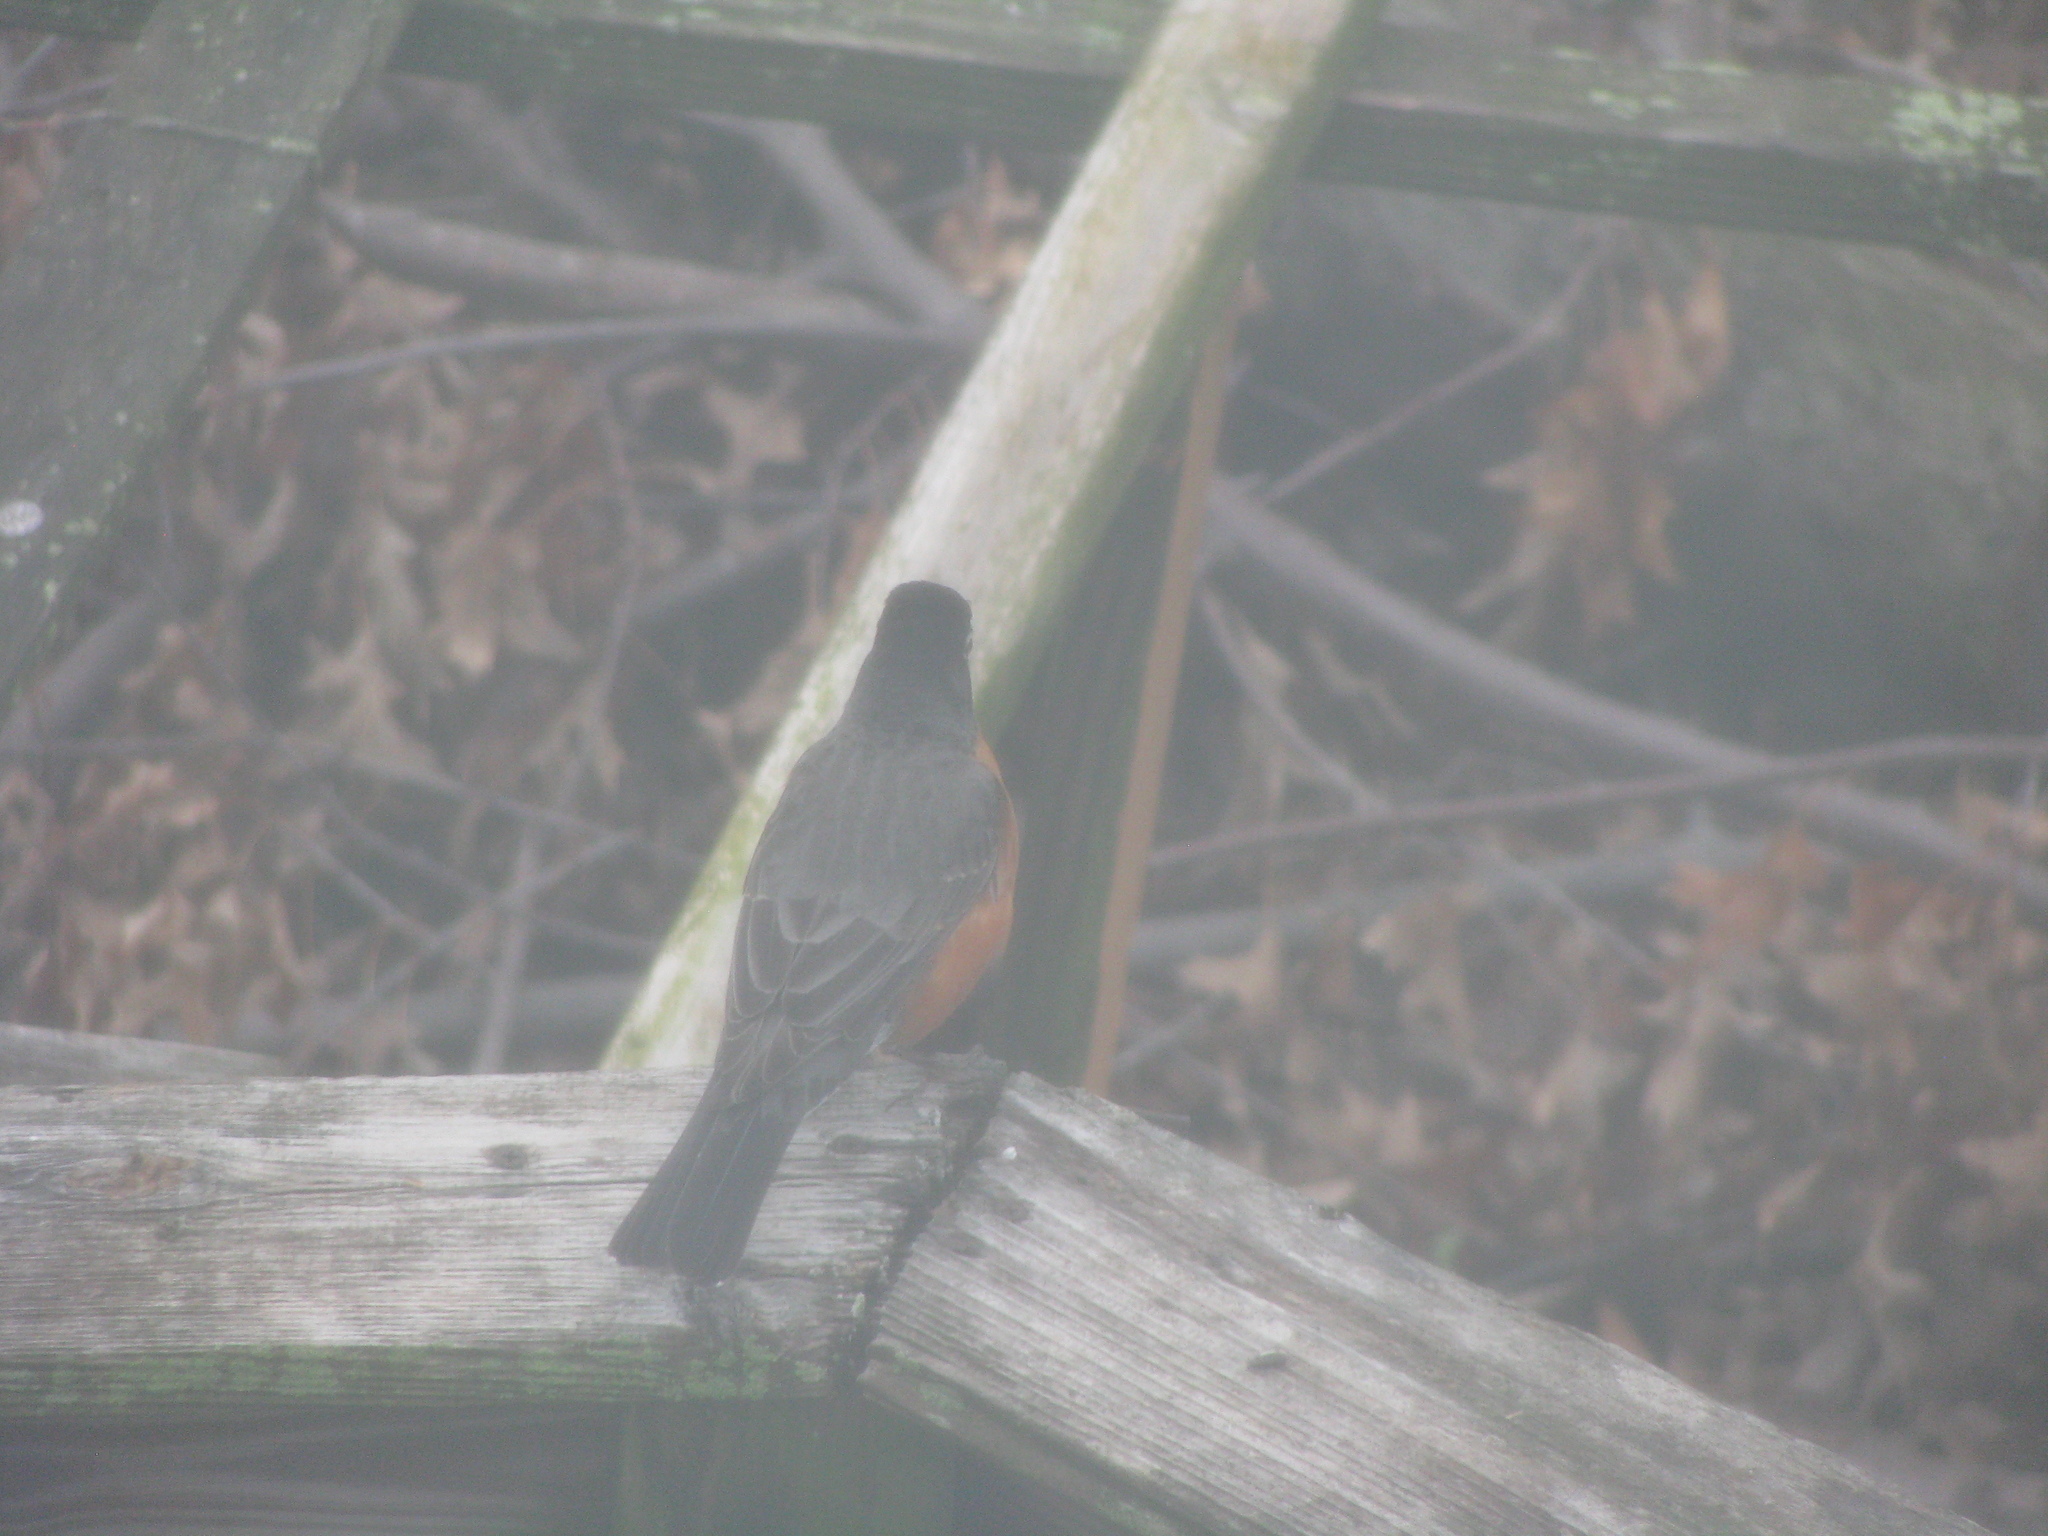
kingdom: Animalia
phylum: Chordata
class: Aves
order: Passeriformes
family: Turdidae
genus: Turdus
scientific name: Turdus migratorius
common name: American robin
